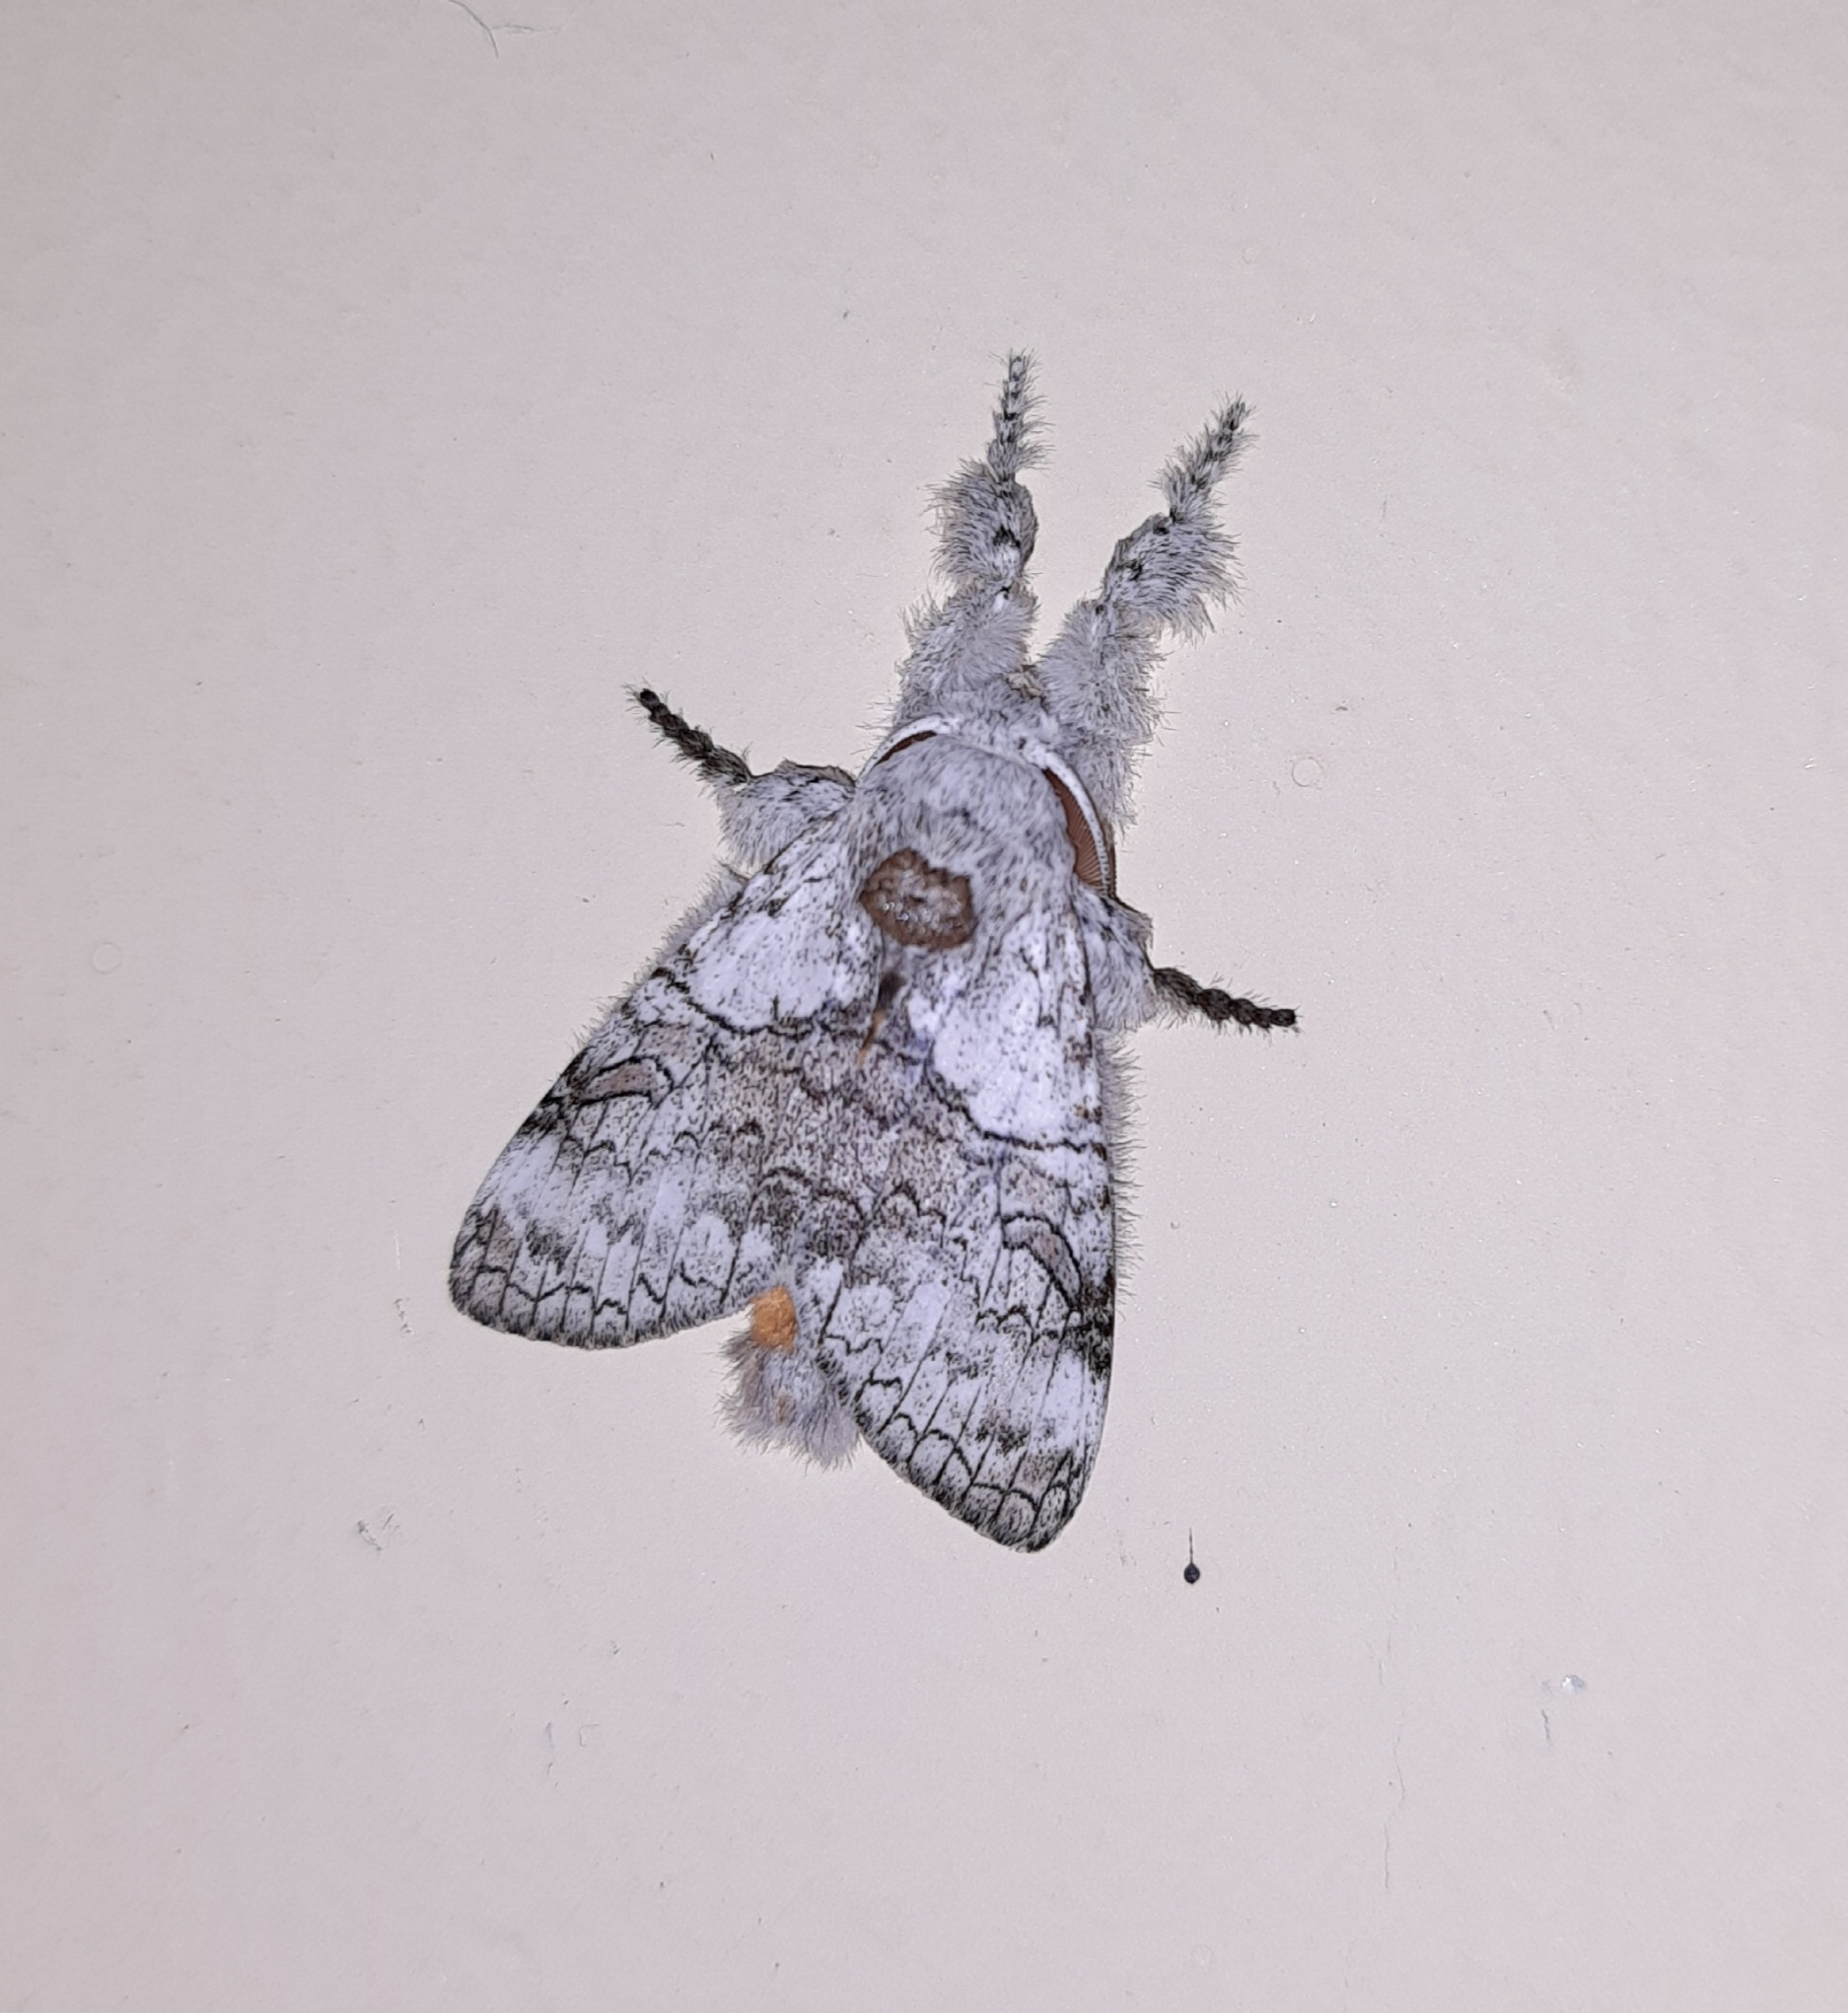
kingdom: Animalia
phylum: Arthropoda
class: Insecta
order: Lepidoptera
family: Erebidae
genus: Calliteara
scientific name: Calliteara grotei
